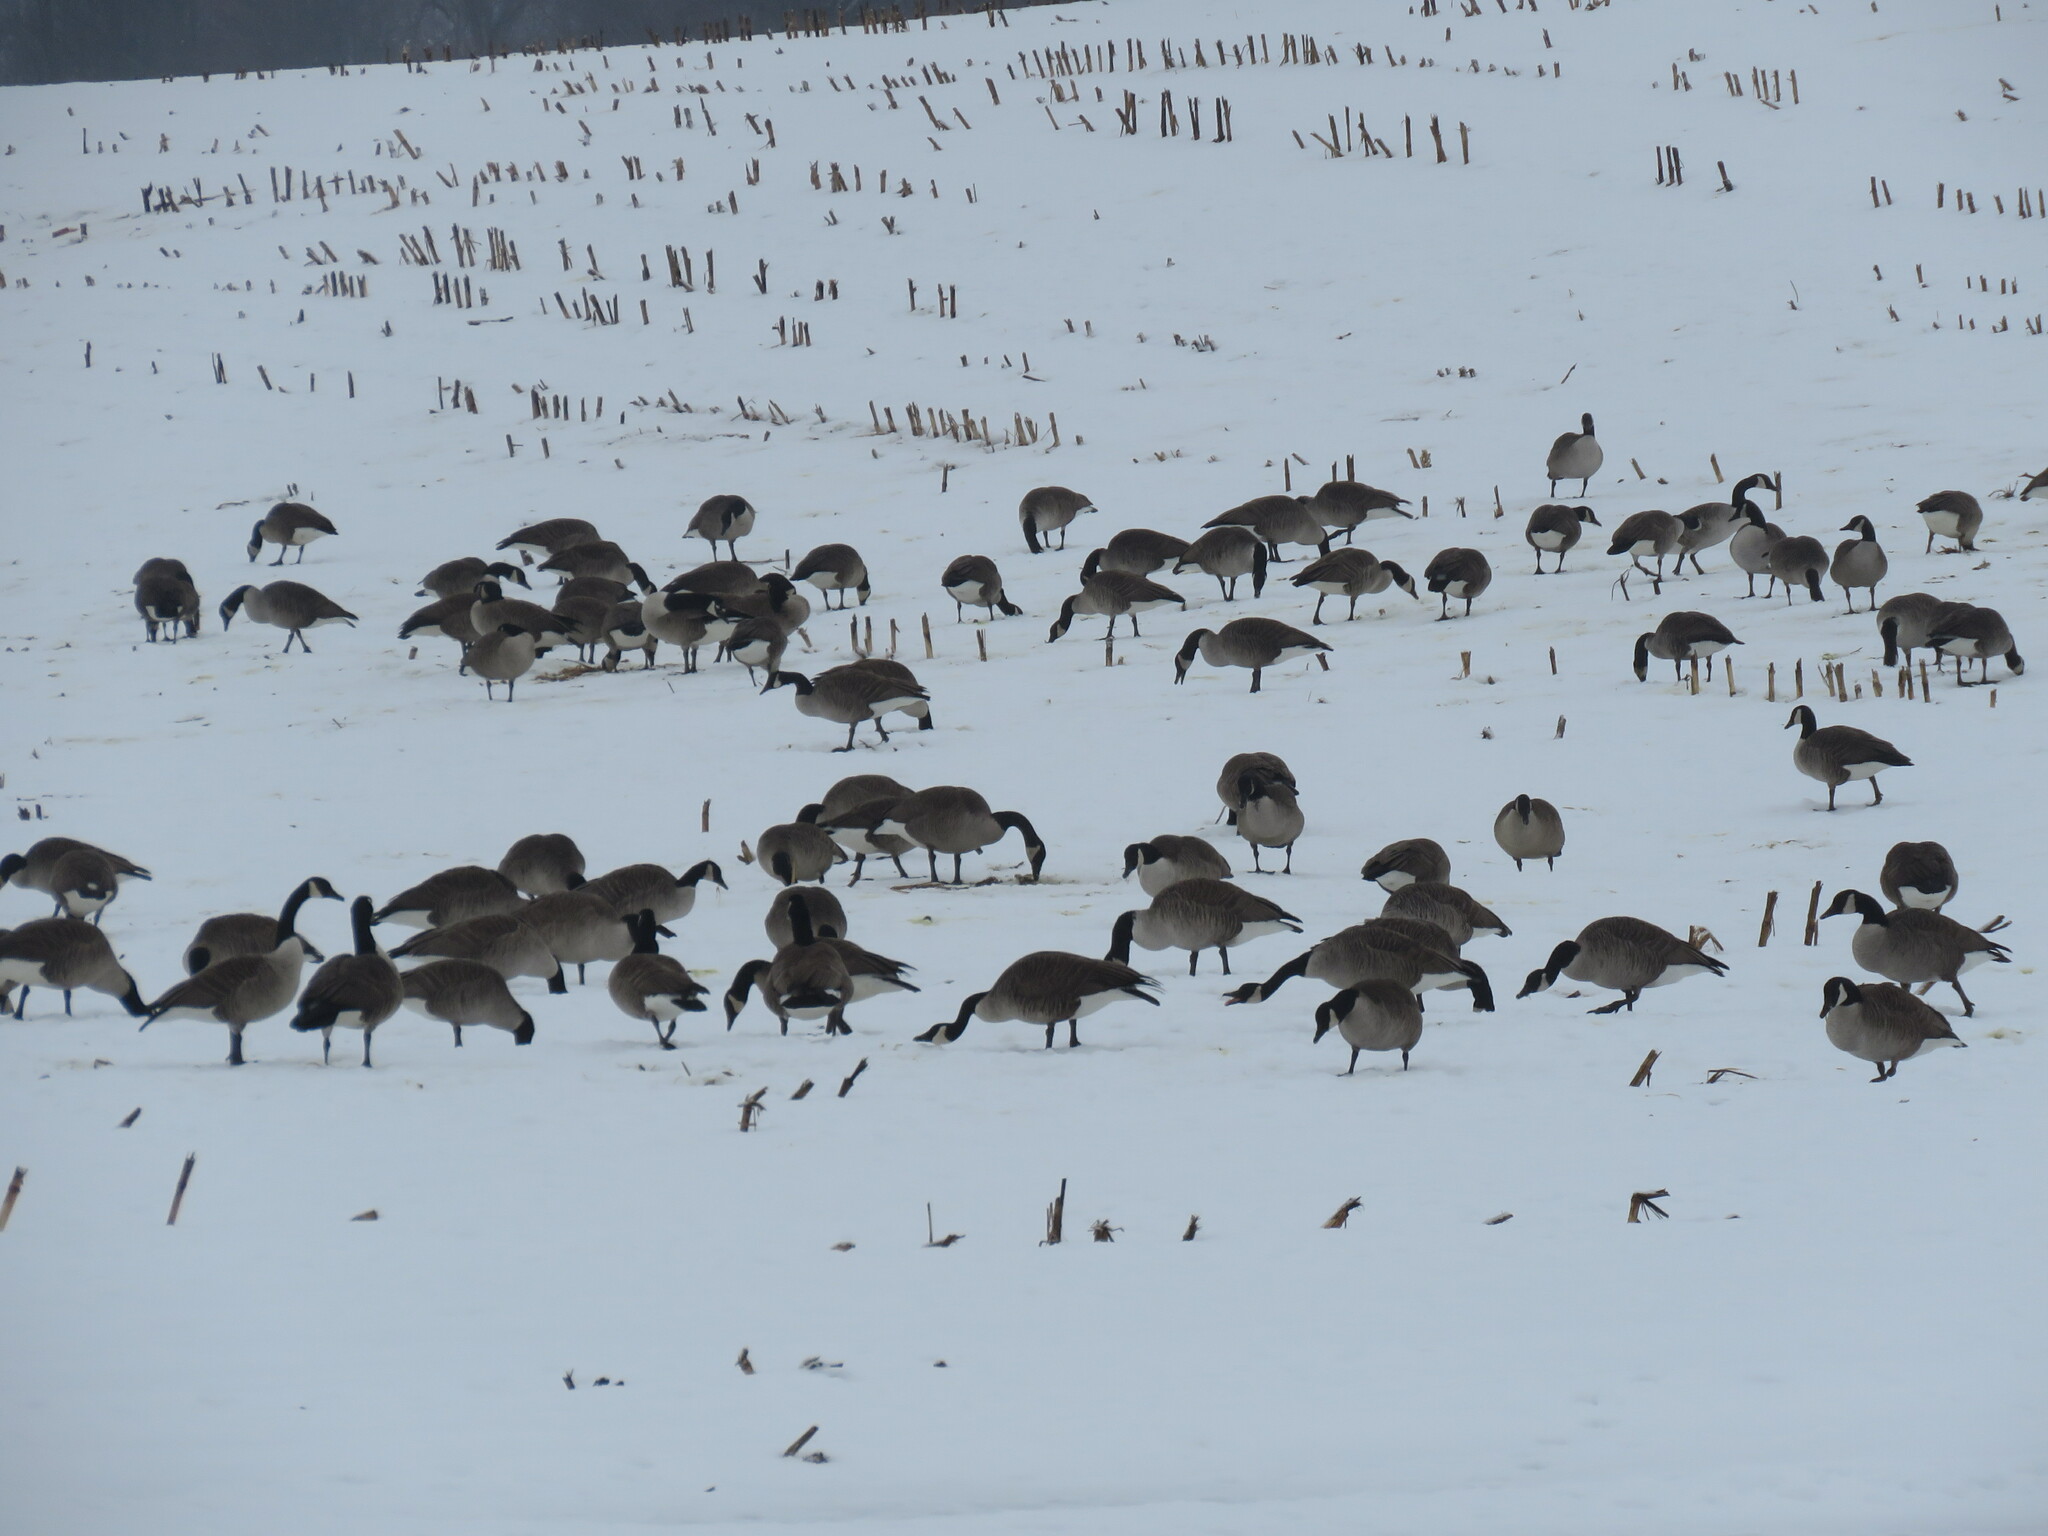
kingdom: Animalia
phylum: Chordata
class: Aves
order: Anseriformes
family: Anatidae
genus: Branta
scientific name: Branta canadensis
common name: Canada goose
